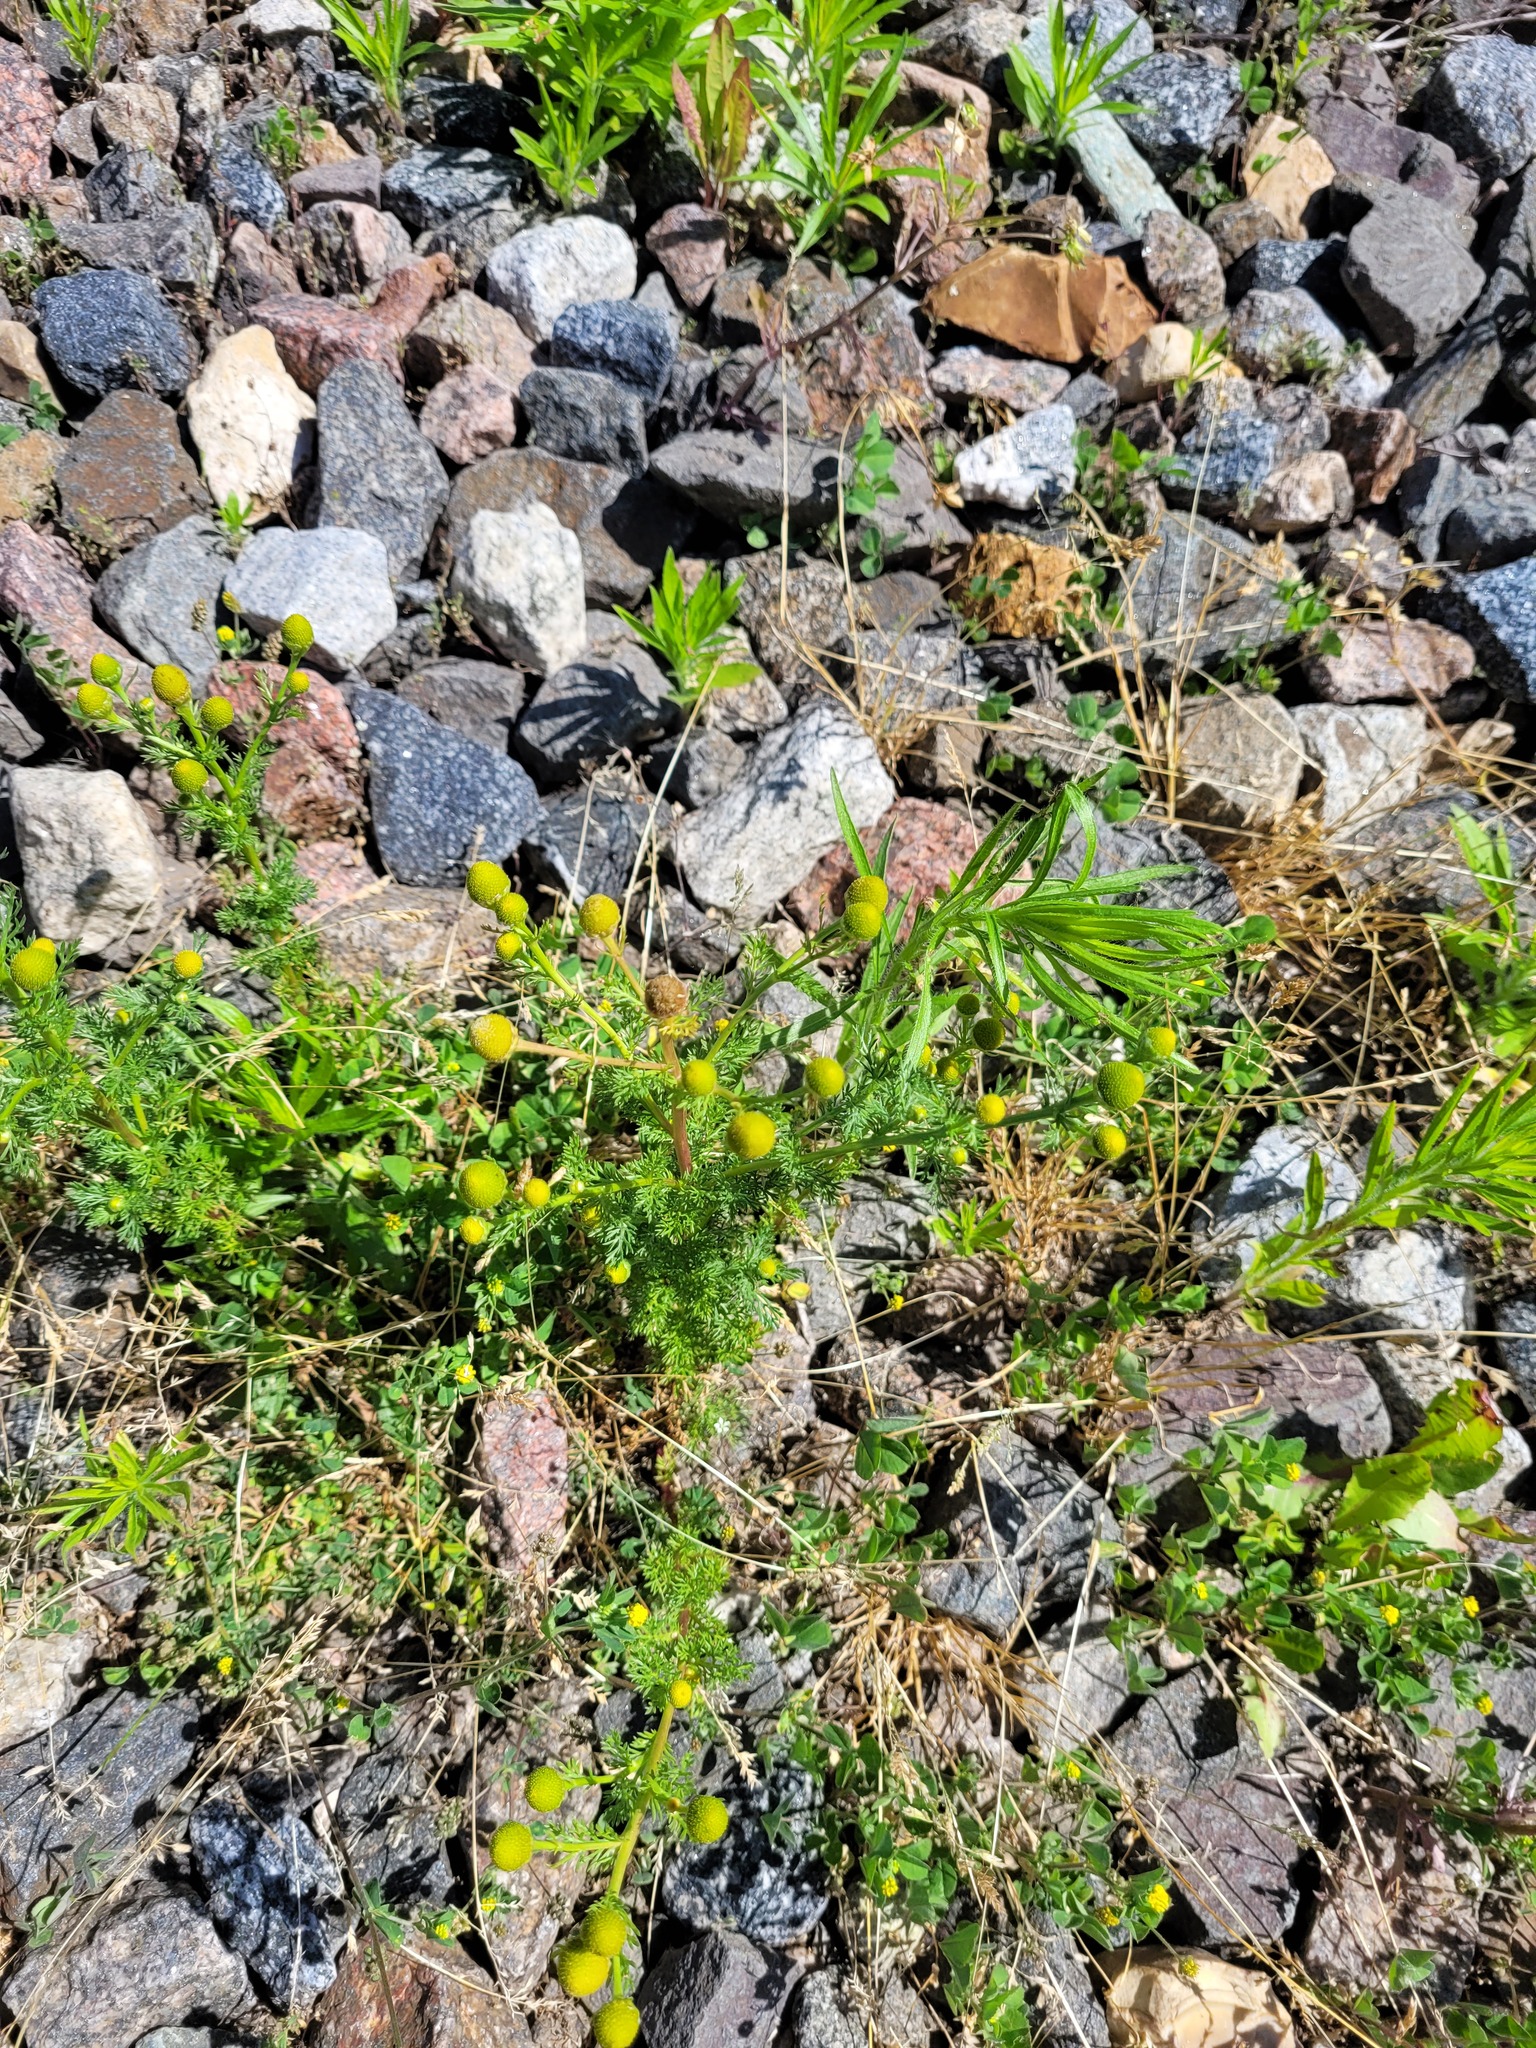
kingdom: Plantae
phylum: Tracheophyta
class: Magnoliopsida
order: Asterales
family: Asteraceae
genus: Matricaria
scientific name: Matricaria discoidea
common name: Disc mayweed
